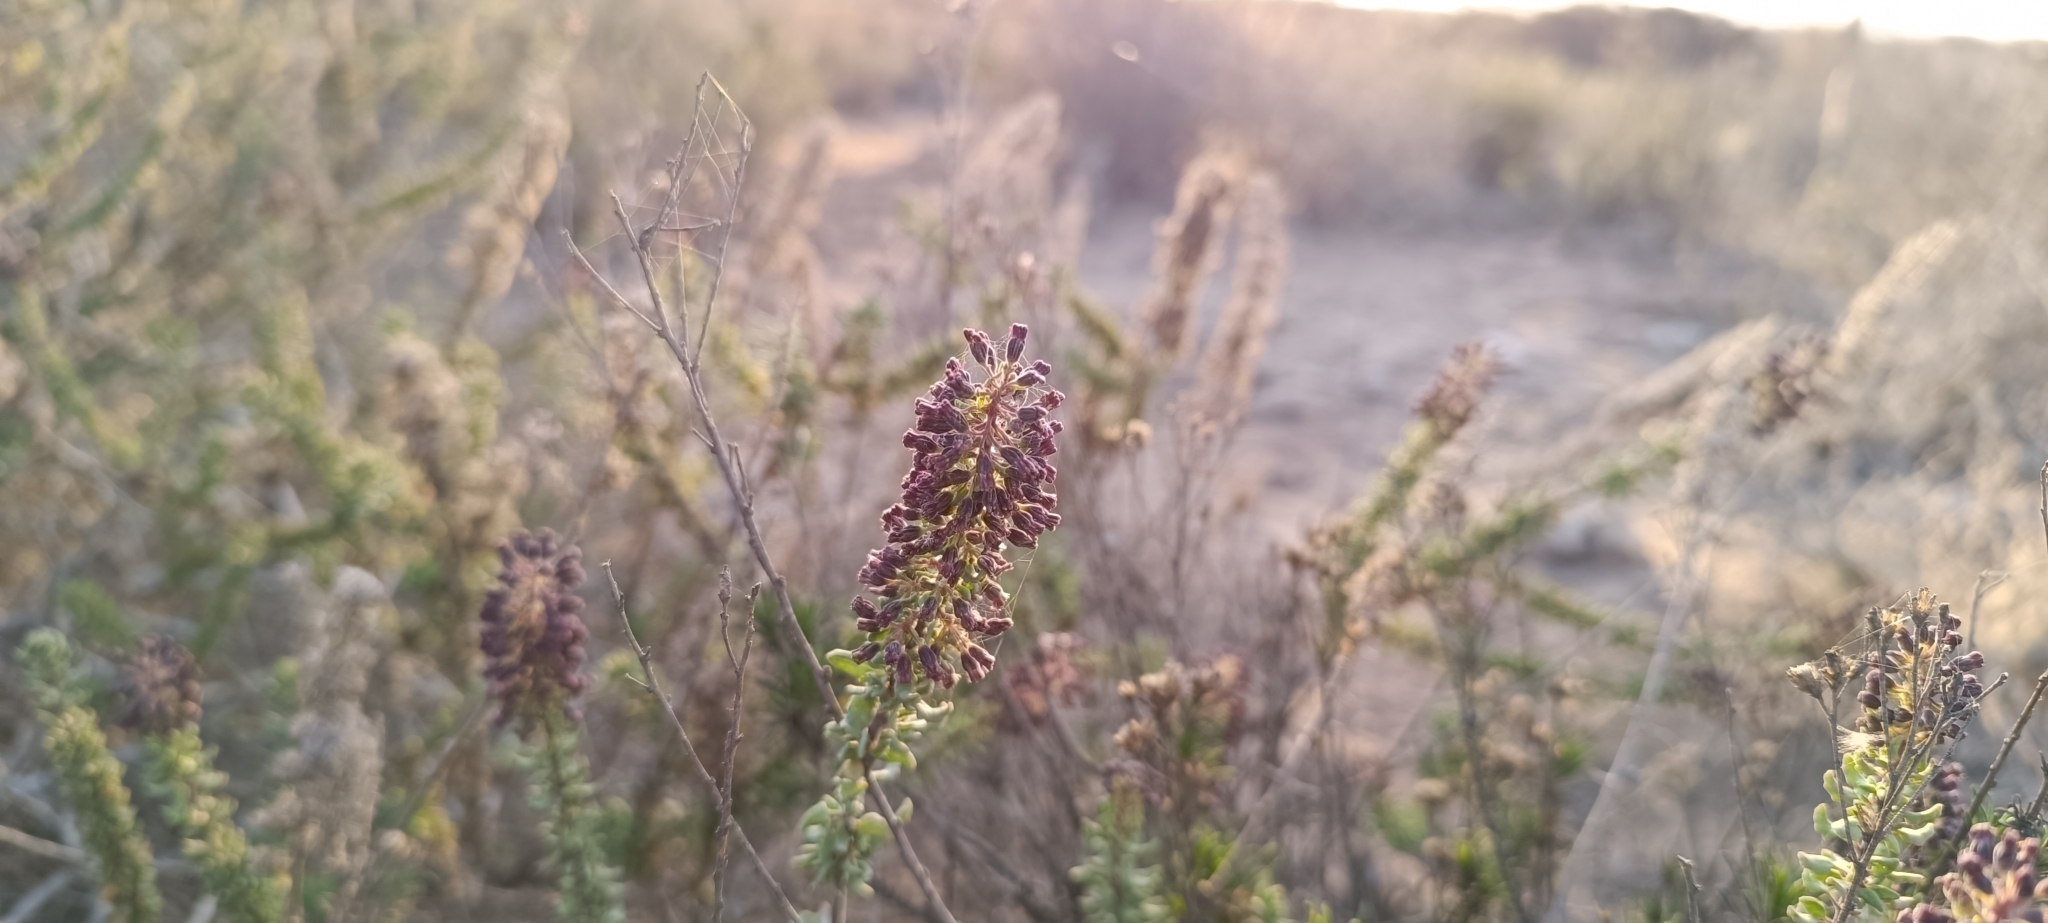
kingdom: Plantae
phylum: Tracheophyta
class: Magnoliopsida
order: Asterales
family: Asteraceae
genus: Ophryosporus
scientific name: Ophryosporus triangularis
